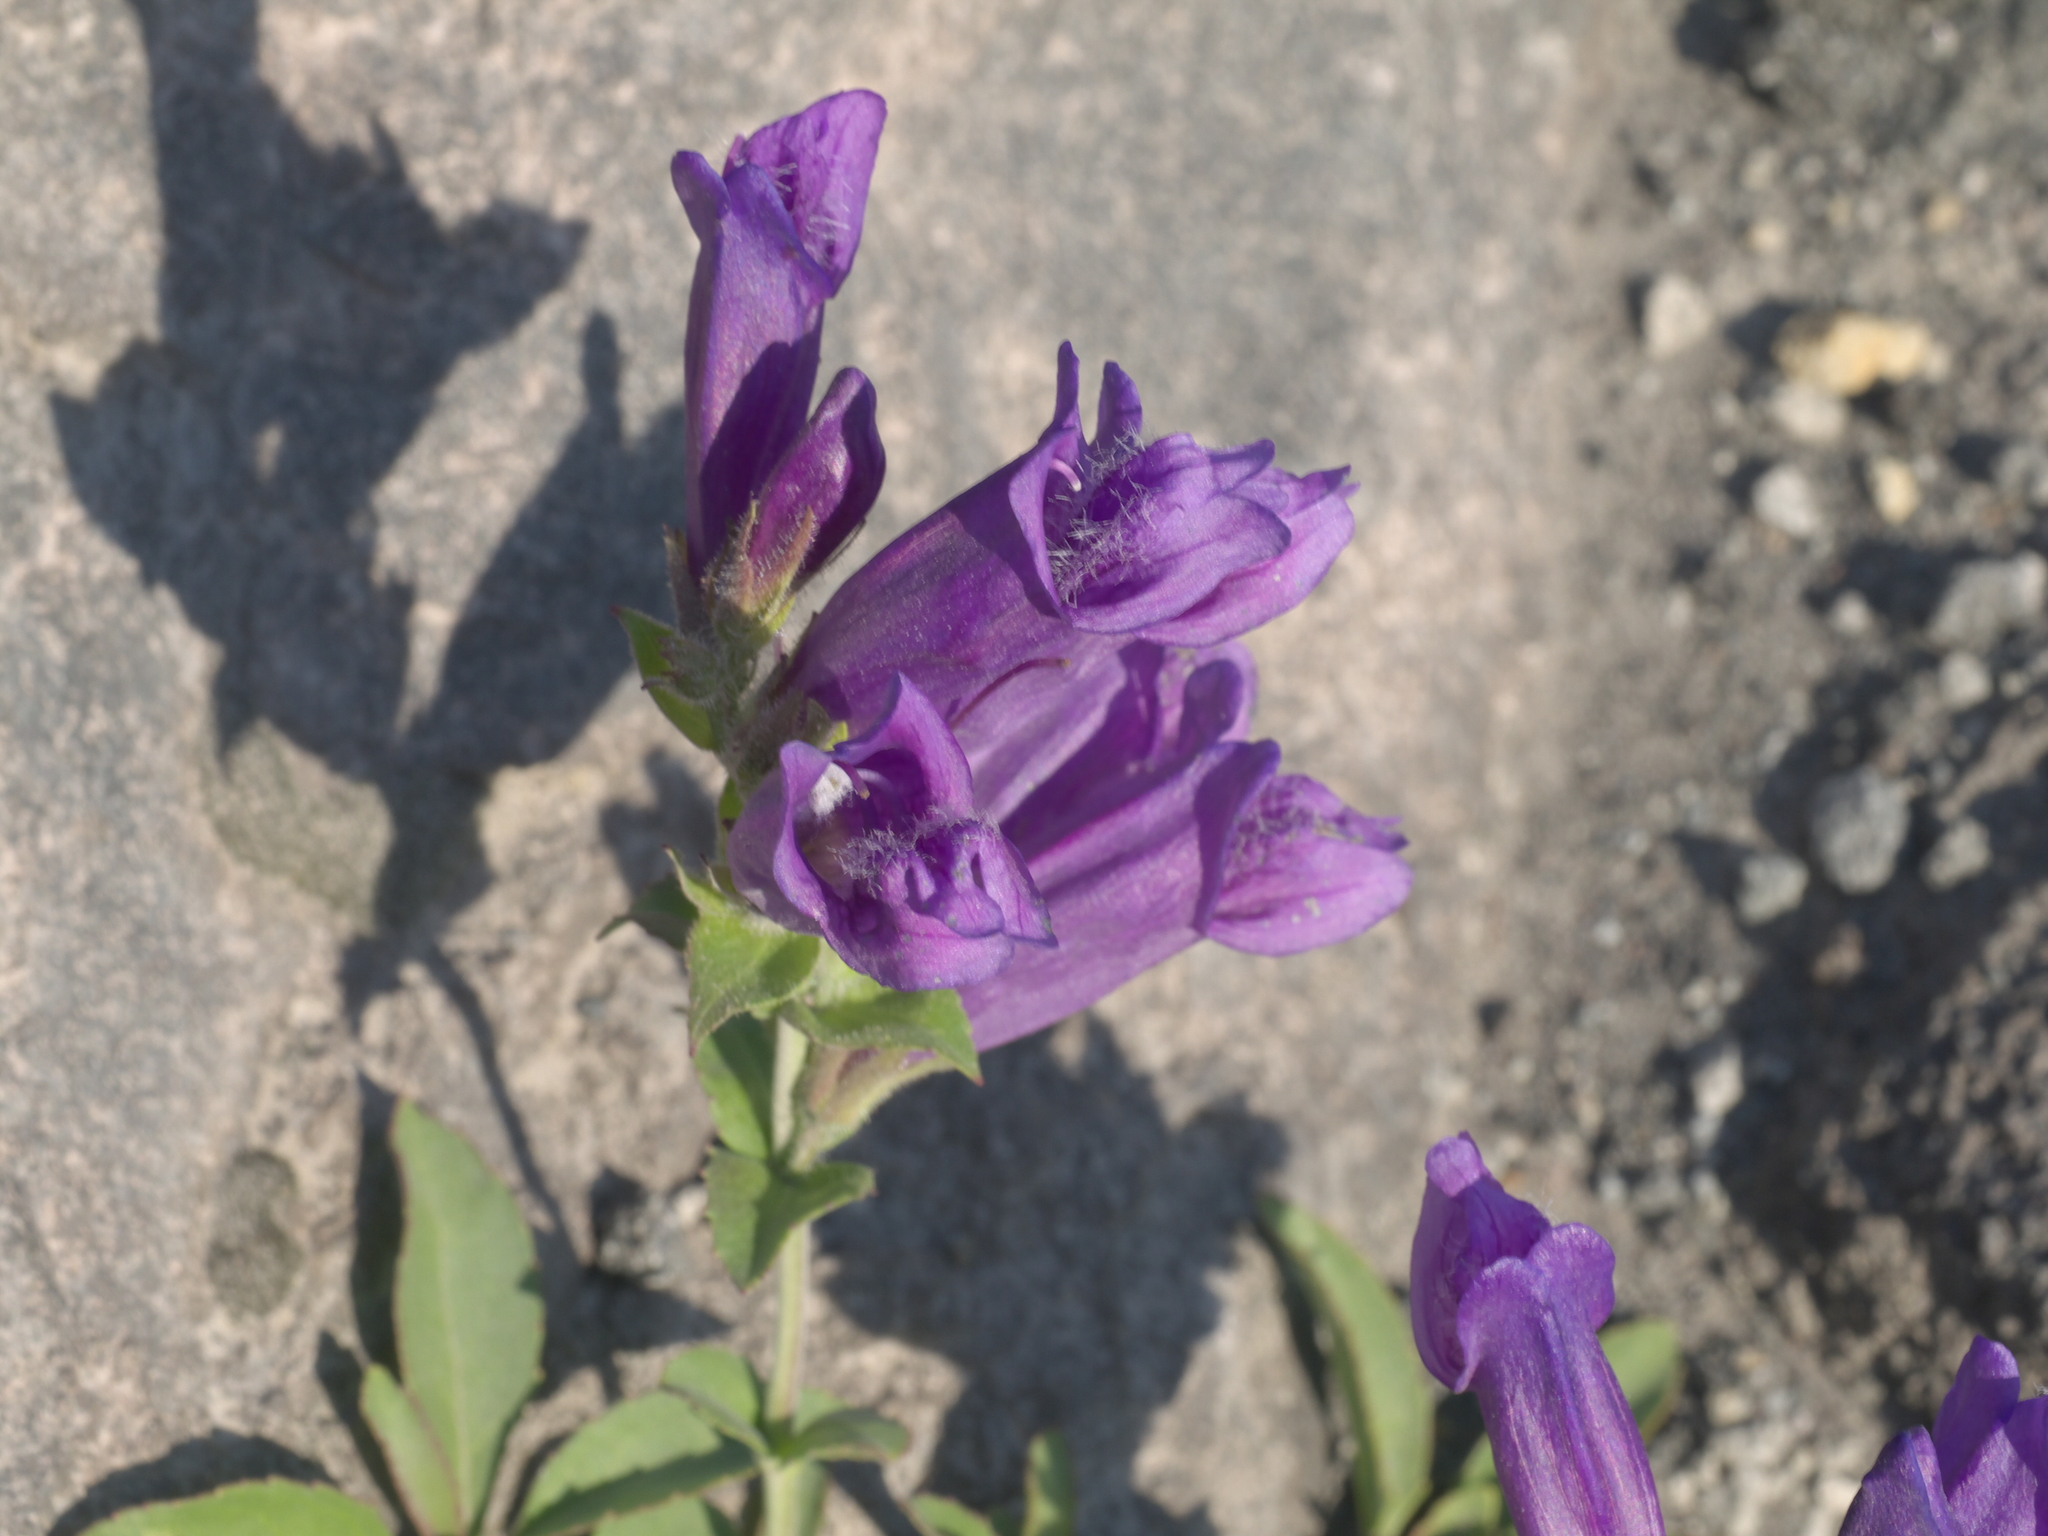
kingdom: Plantae
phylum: Tracheophyta
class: Magnoliopsida
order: Lamiales
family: Plantaginaceae
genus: Penstemon
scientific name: Penstemon cardwellii
